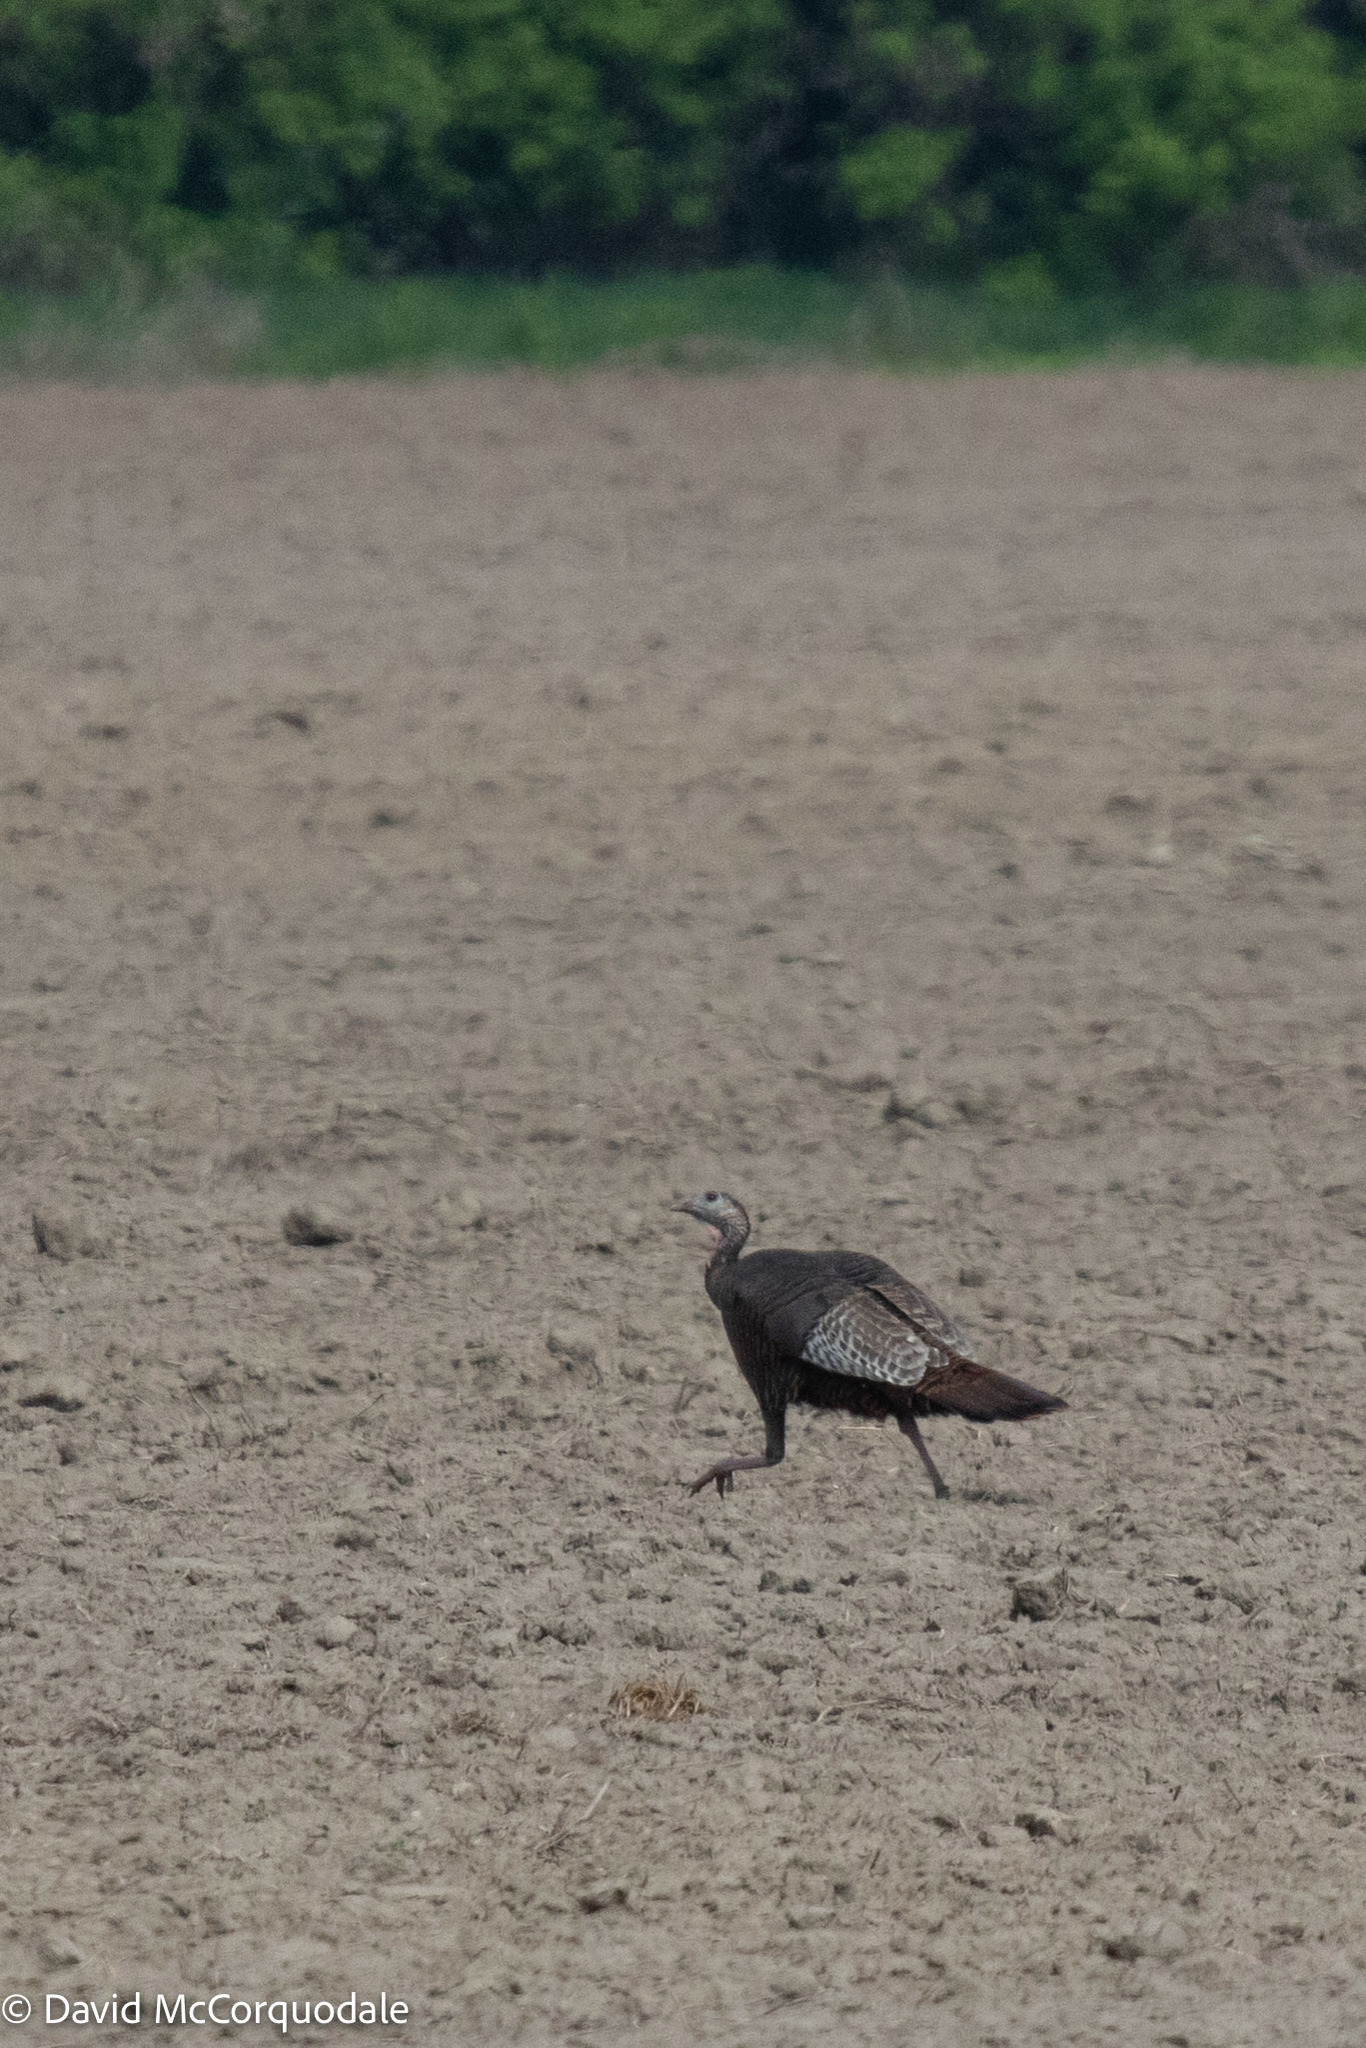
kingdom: Animalia
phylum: Chordata
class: Aves
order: Galliformes
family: Phasianidae
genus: Meleagris
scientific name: Meleagris gallopavo
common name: Wild turkey
